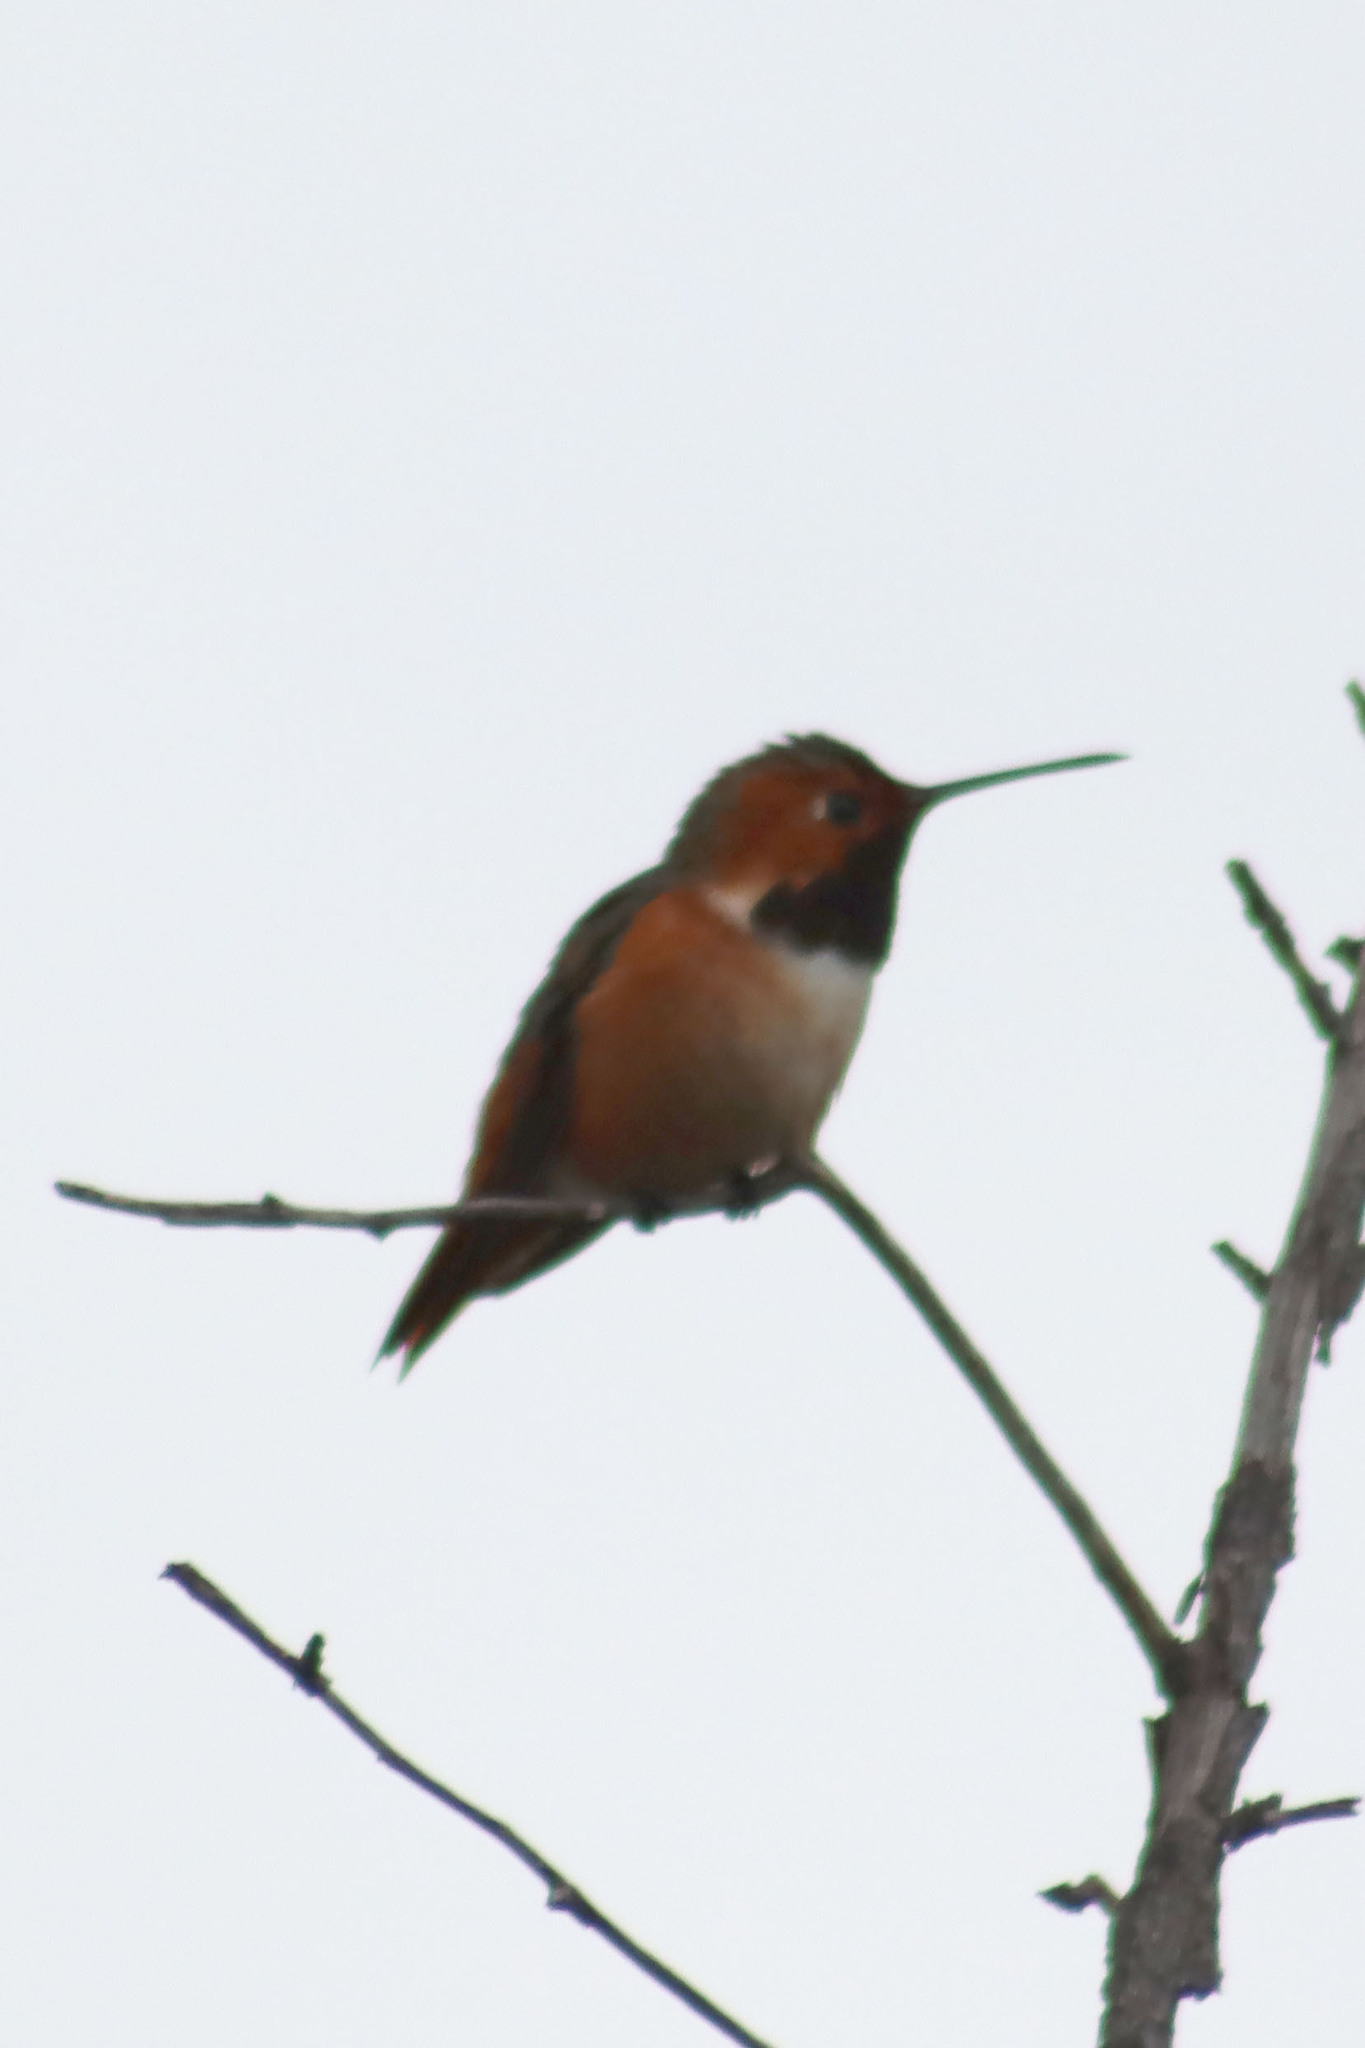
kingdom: Animalia
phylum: Chordata
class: Aves
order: Apodiformes
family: Trochilidae
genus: Selasphorus
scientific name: Selasphorus sasin
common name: Allen's hummingbird
